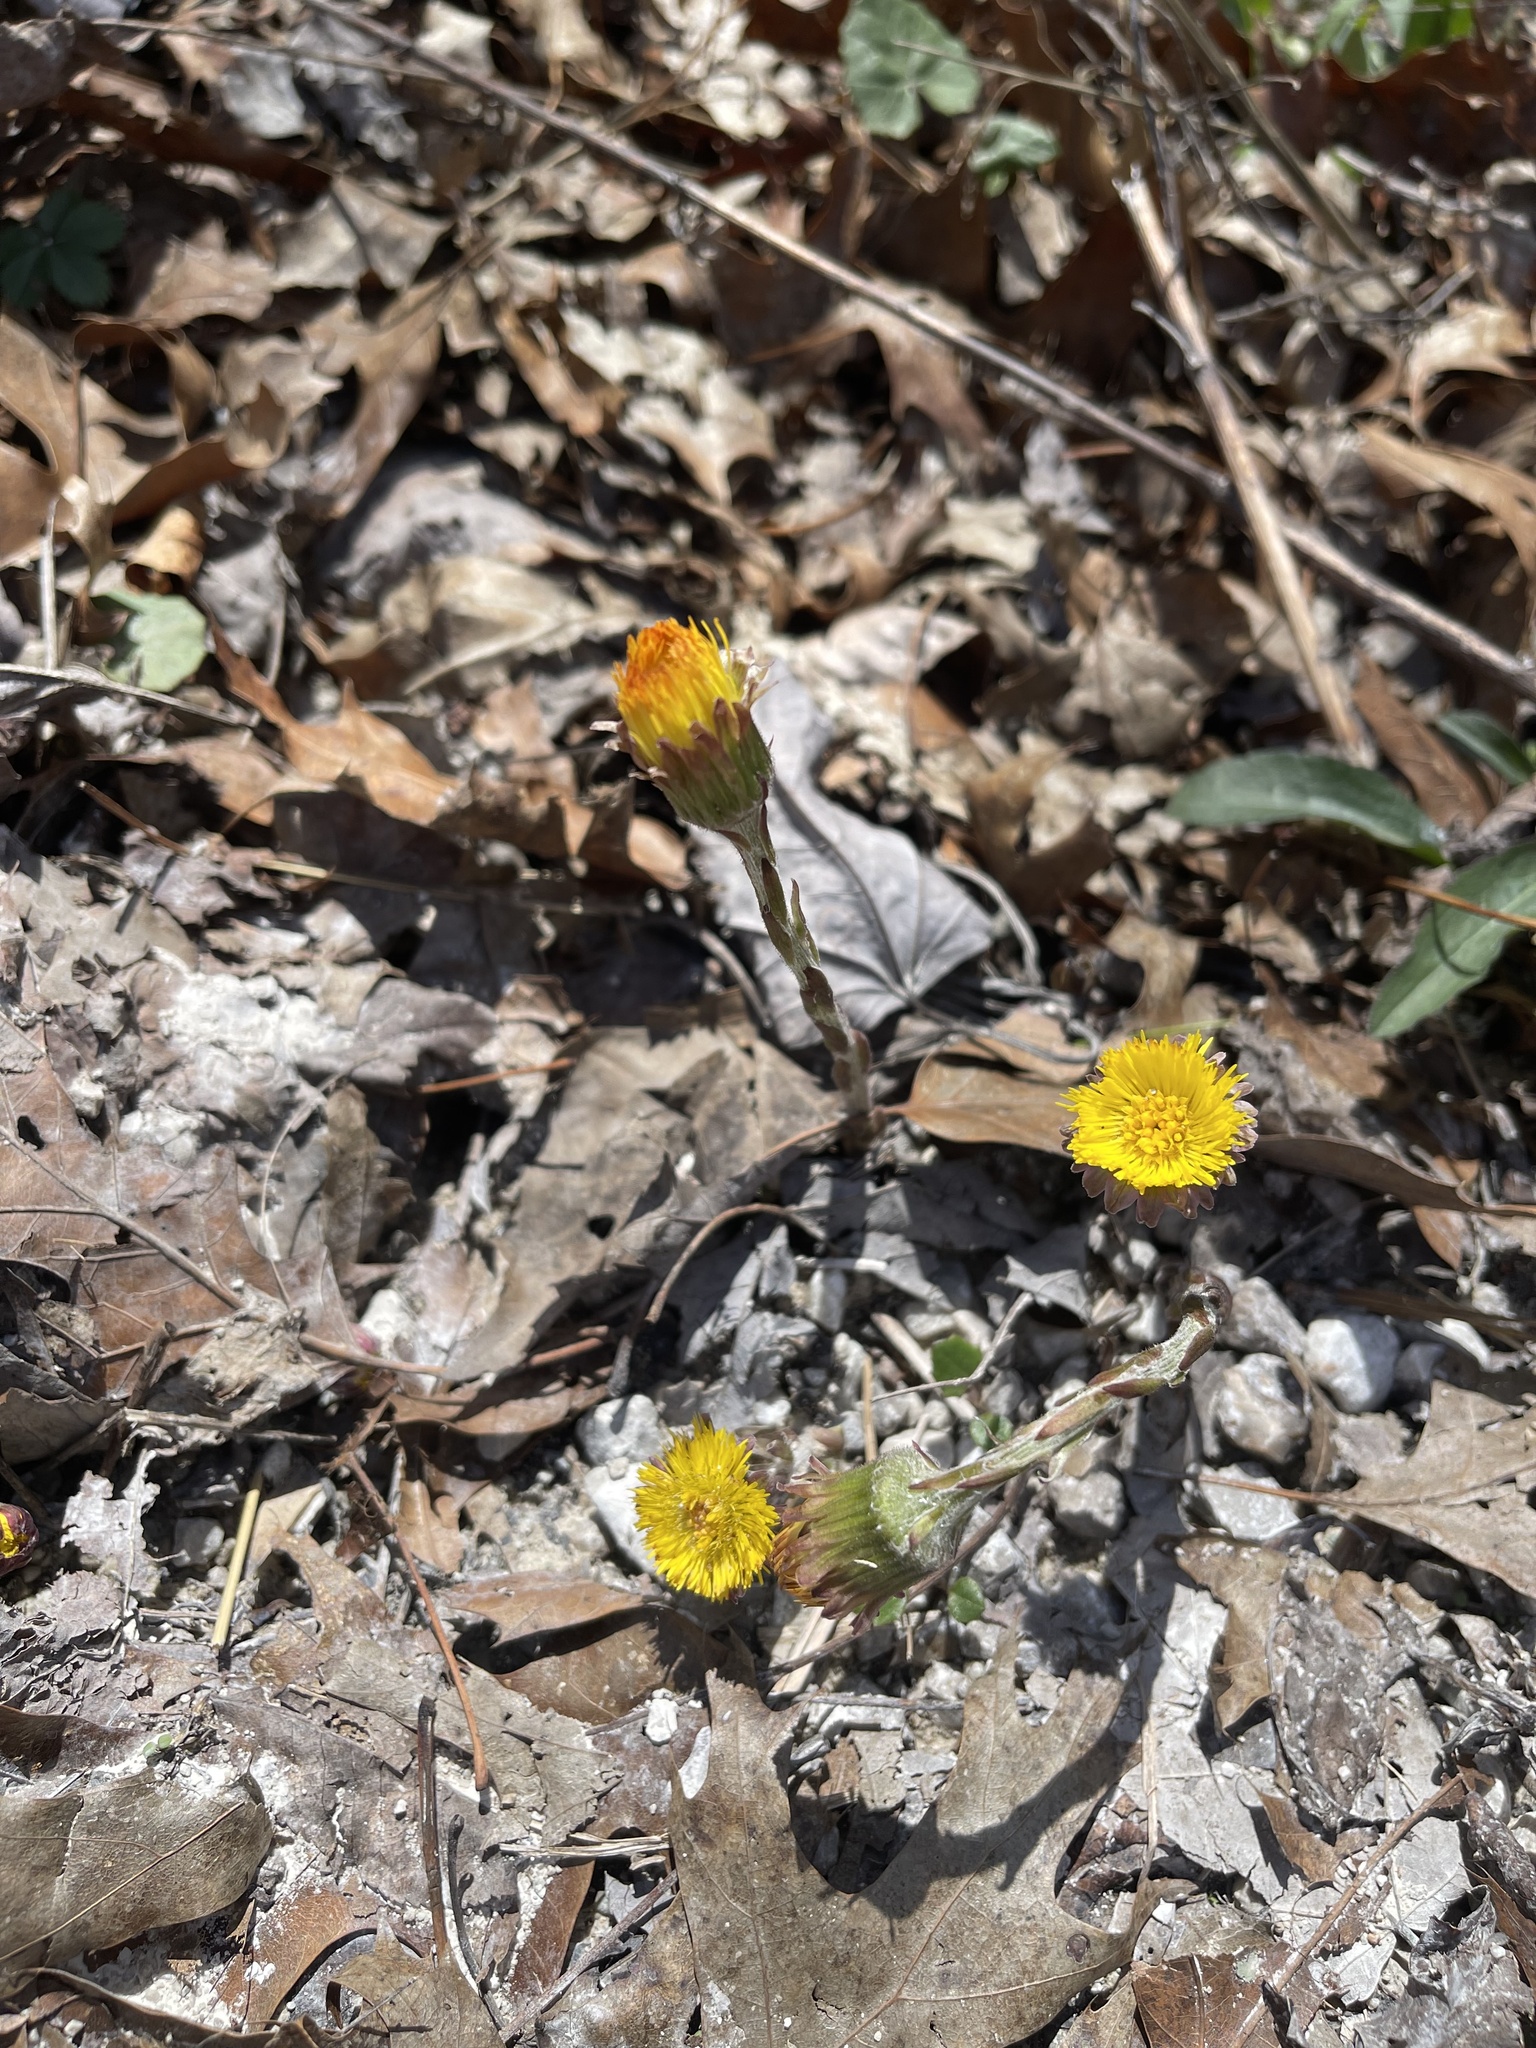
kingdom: Plantae
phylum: Tracheophyta
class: Magnoliopsida
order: Asterales
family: Asteraceae
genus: Tussilago
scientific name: Tussilago farfara
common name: Coltsfoot
